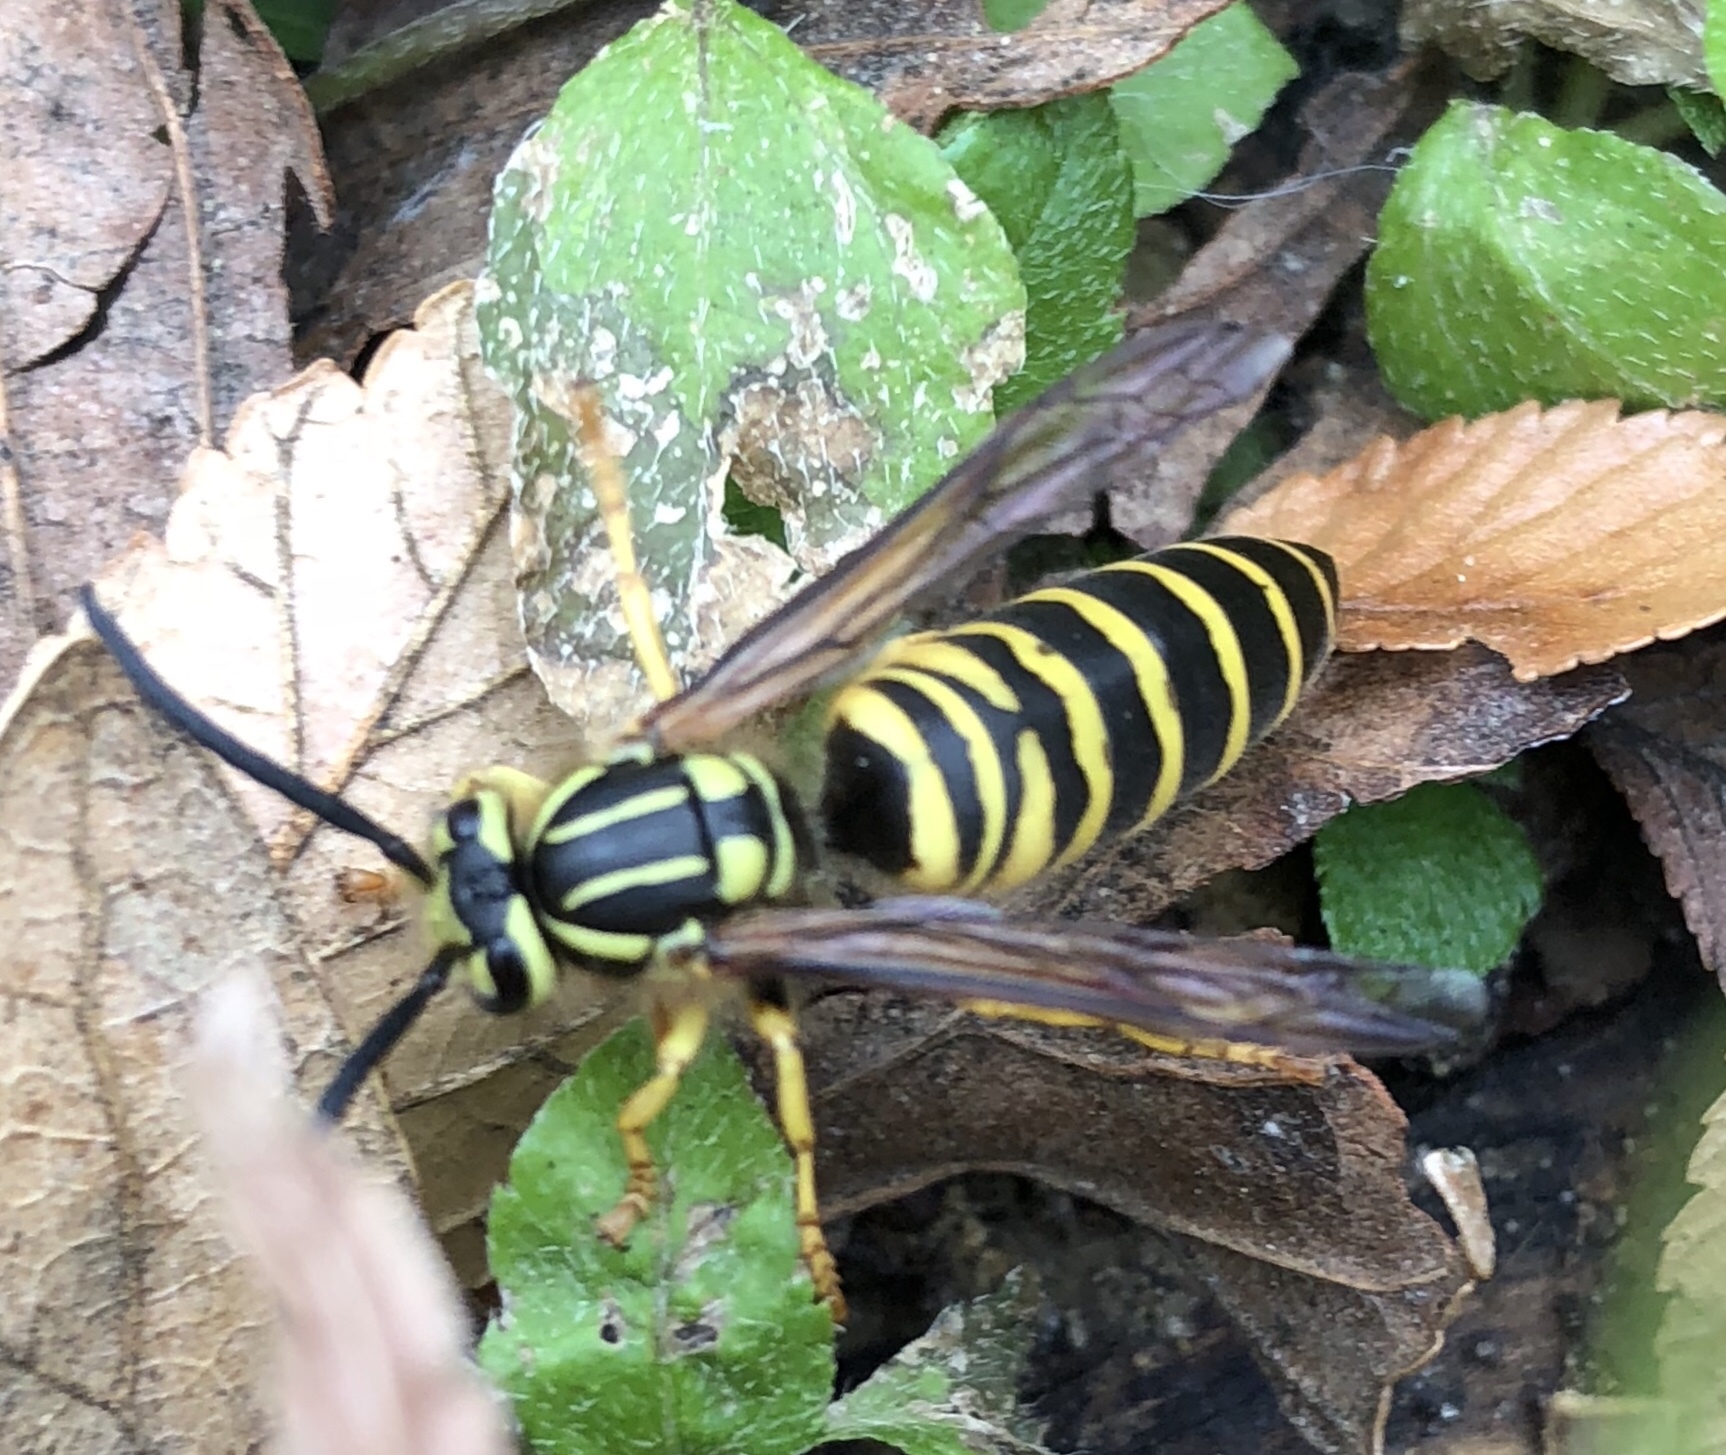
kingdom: Animalia
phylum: Arthropoda
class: Insecta
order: Hymenoptera
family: Vespidae
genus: Vespula
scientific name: Vespula squamosa
